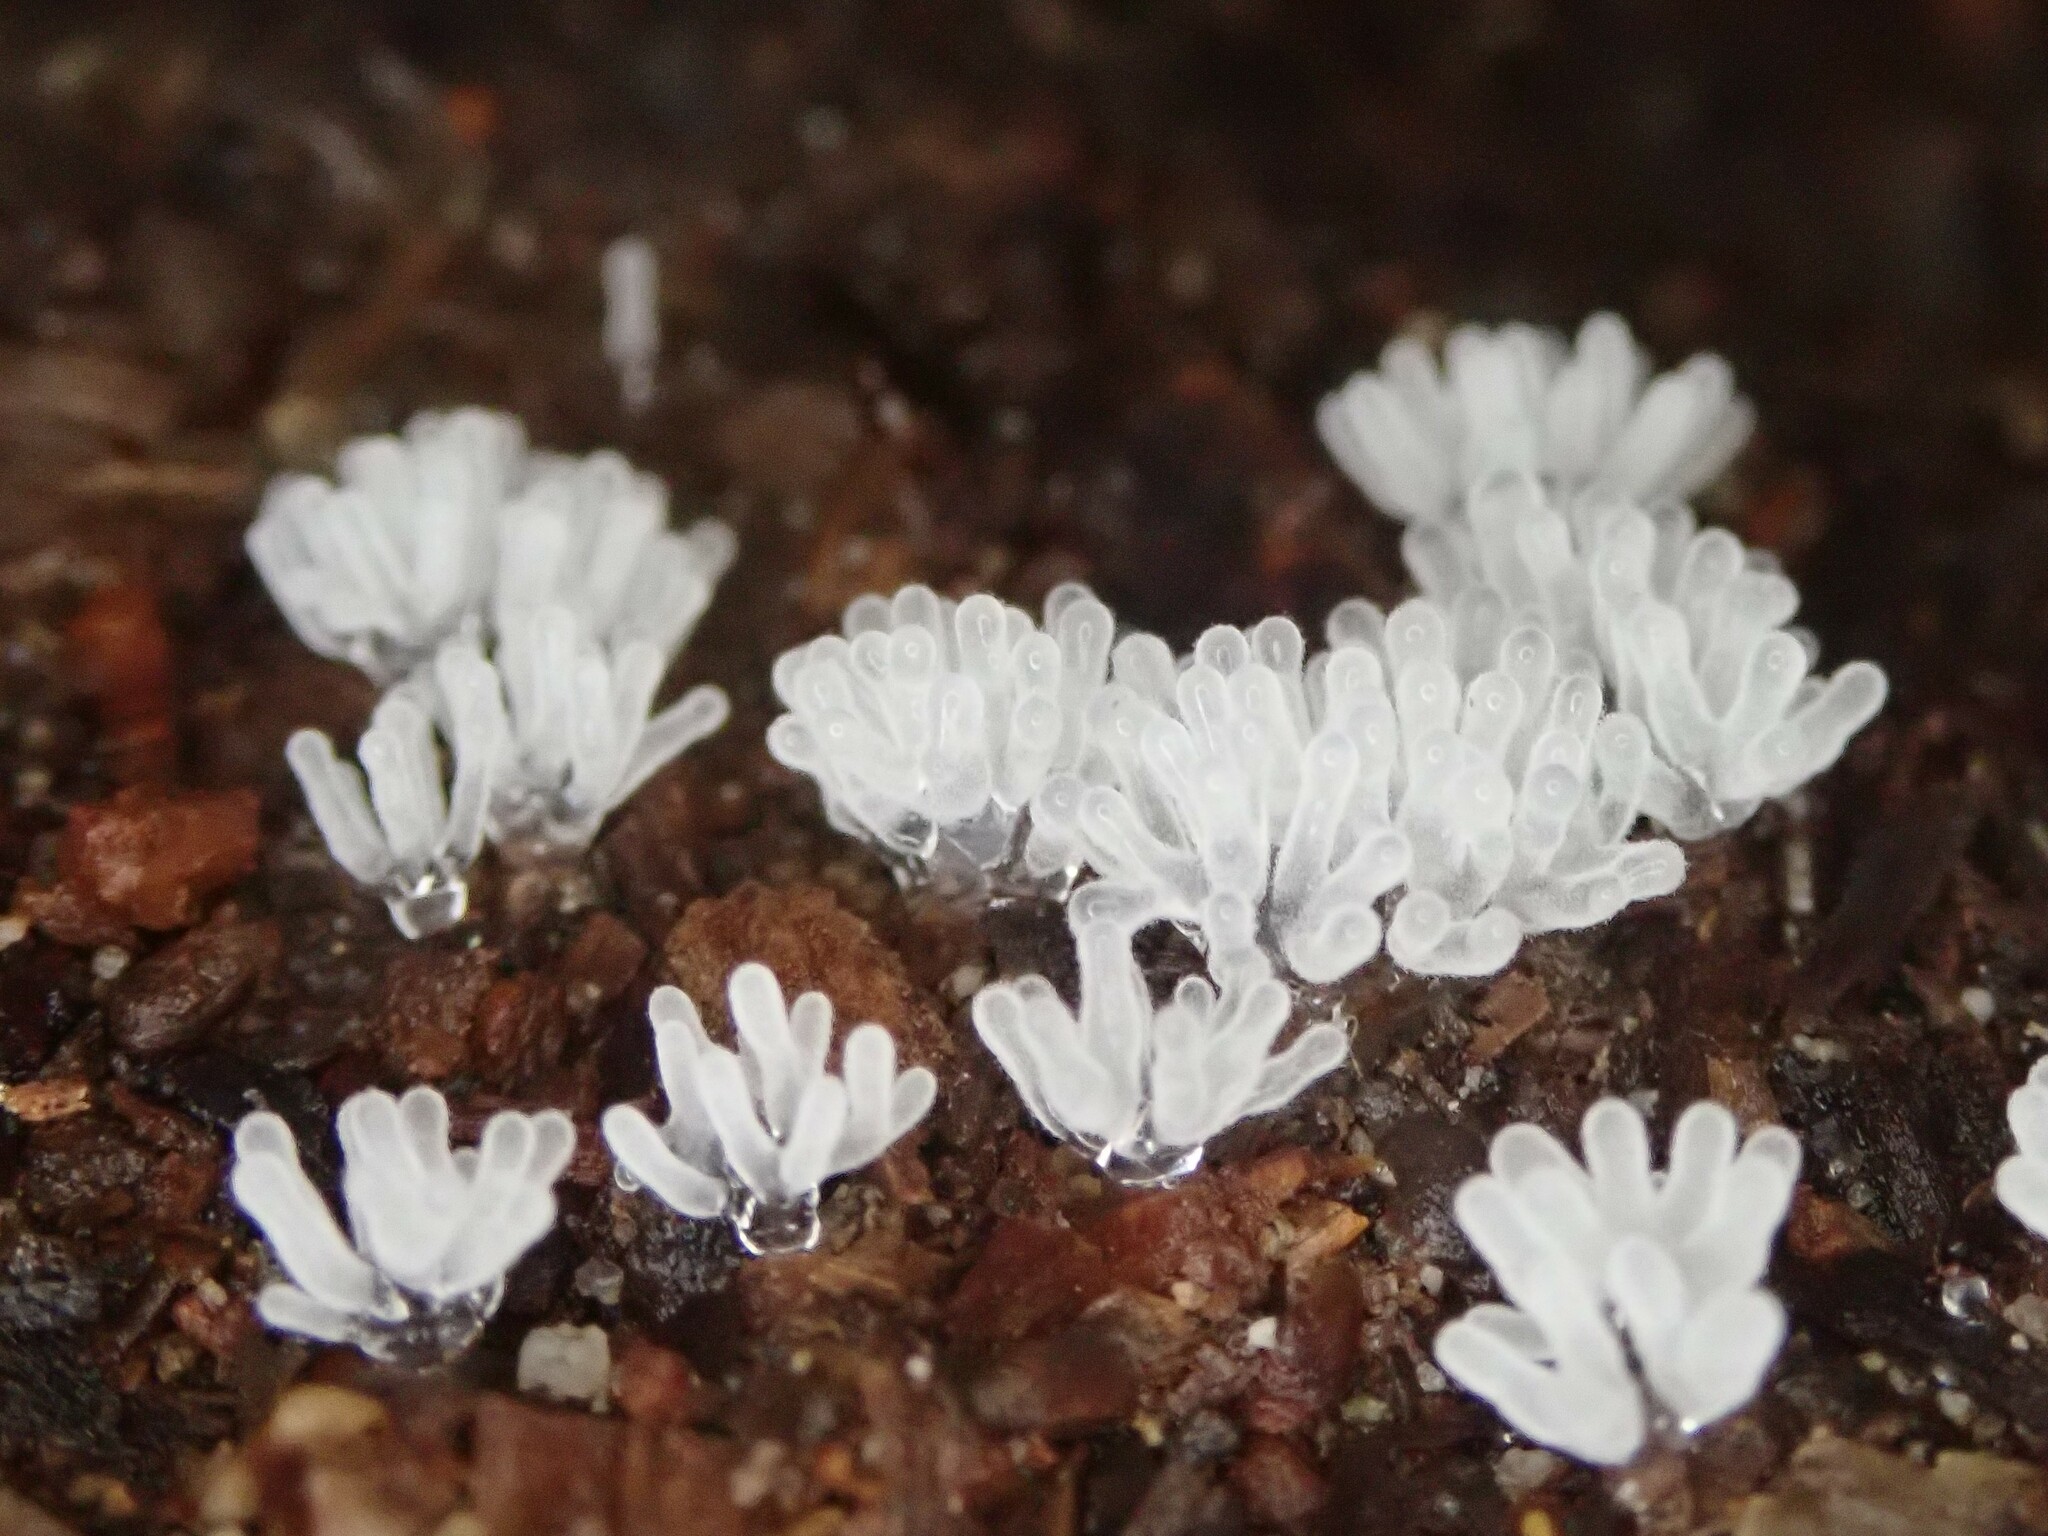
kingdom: Protozoa
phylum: Mycetozoa
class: Protosteliomycetes
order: Ceratiomyxales
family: Ceratiomyxaceae
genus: Ceratiomyxa
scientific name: Ceratiomyxa fruticulosa
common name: Honeycomb coral slime mold
